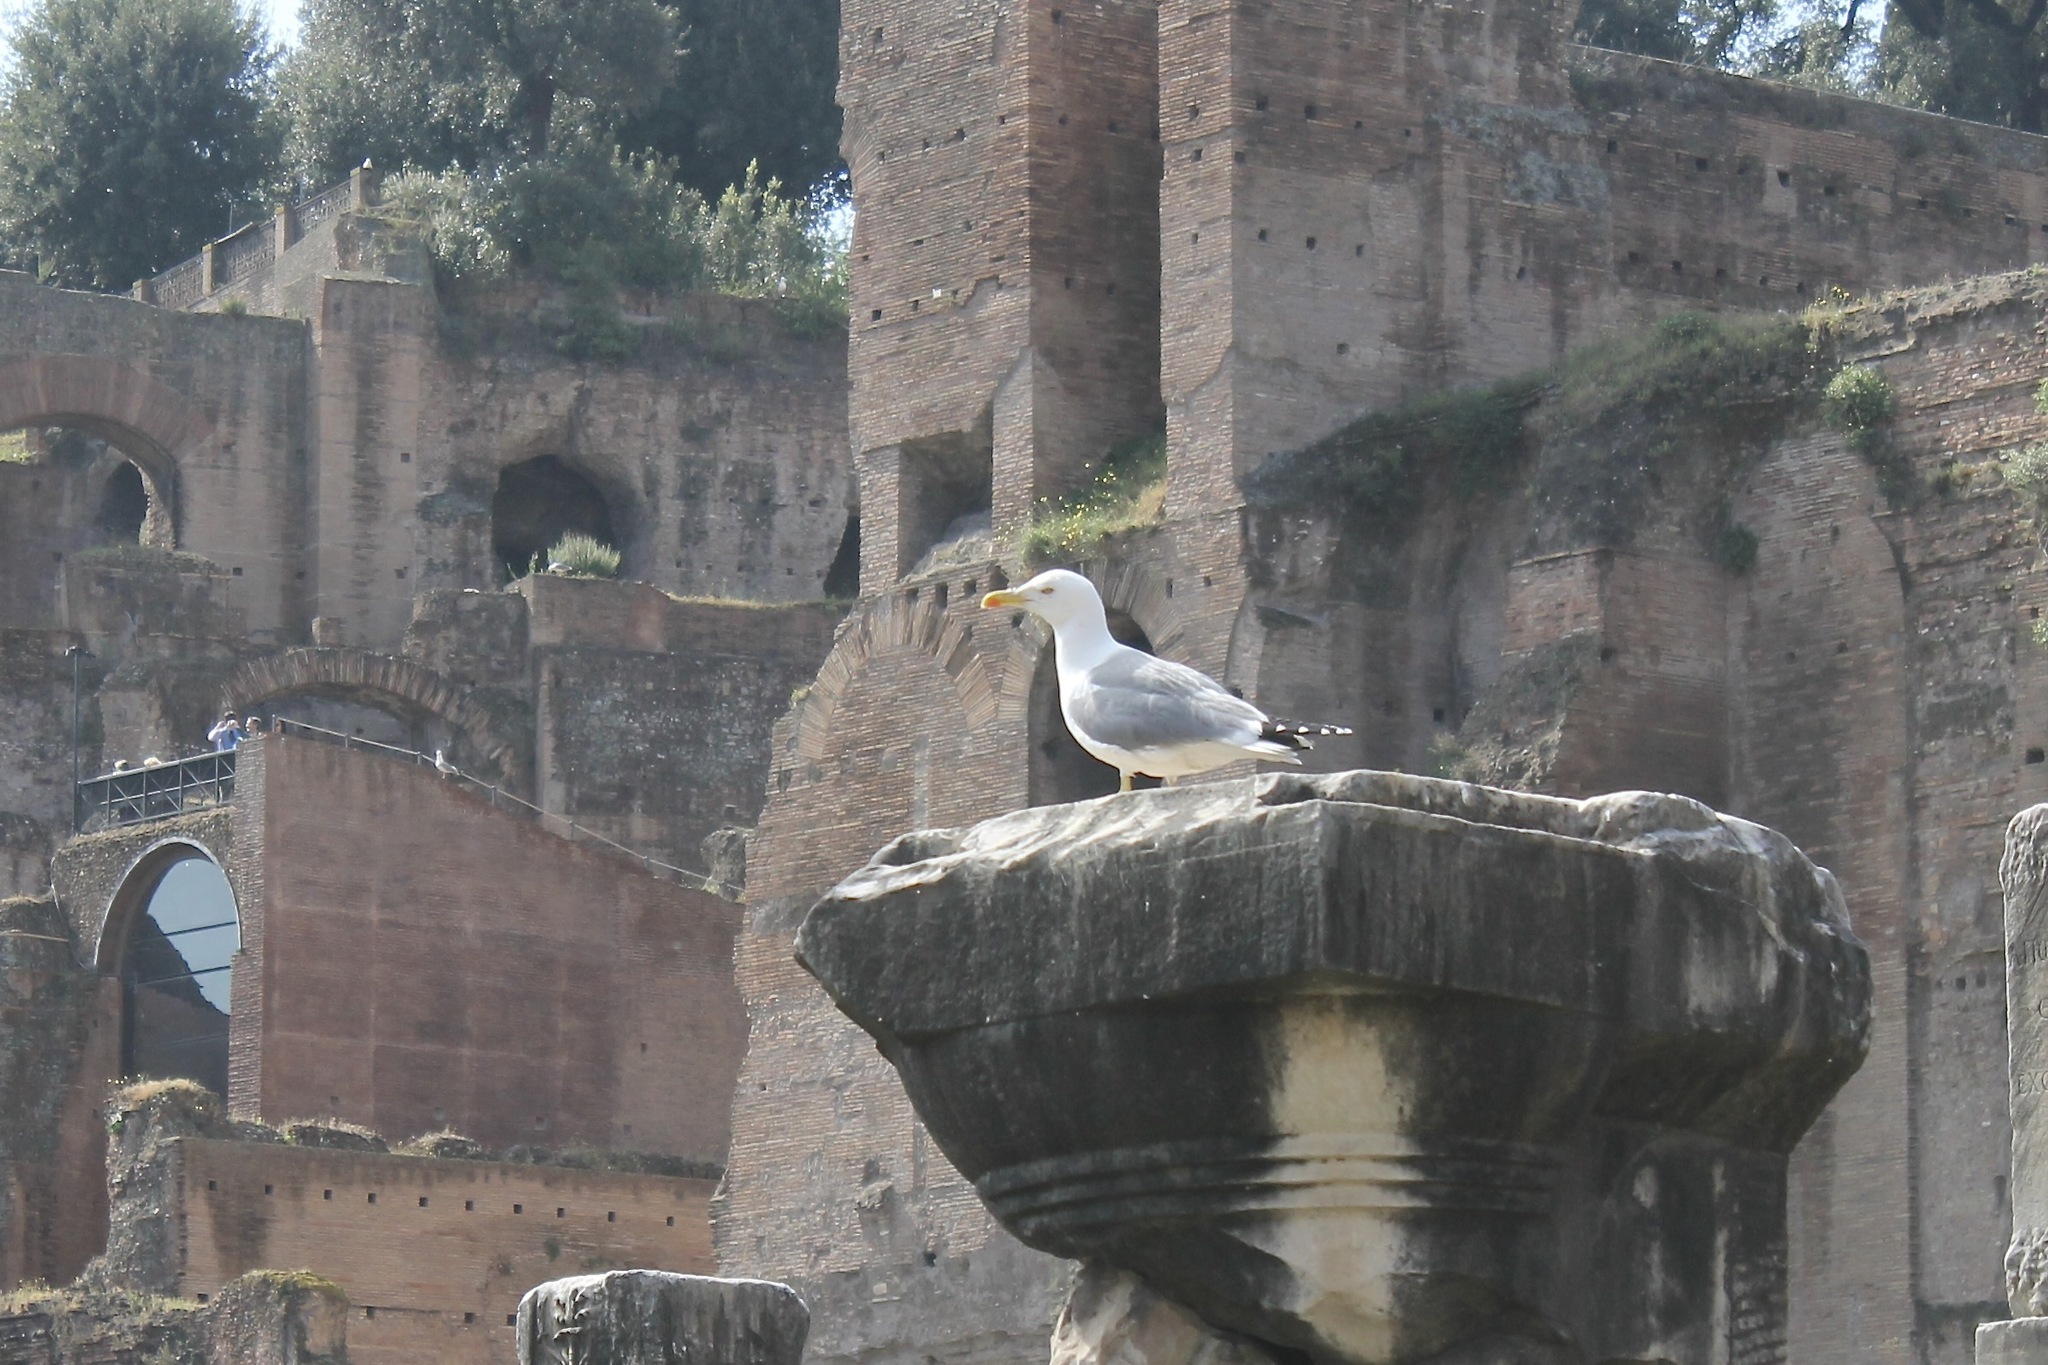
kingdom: Animalia
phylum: Chordata
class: Aves
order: Charadriiformes
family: Laridae
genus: Larus
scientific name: Larus michahellis
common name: Yellow-legged gull
